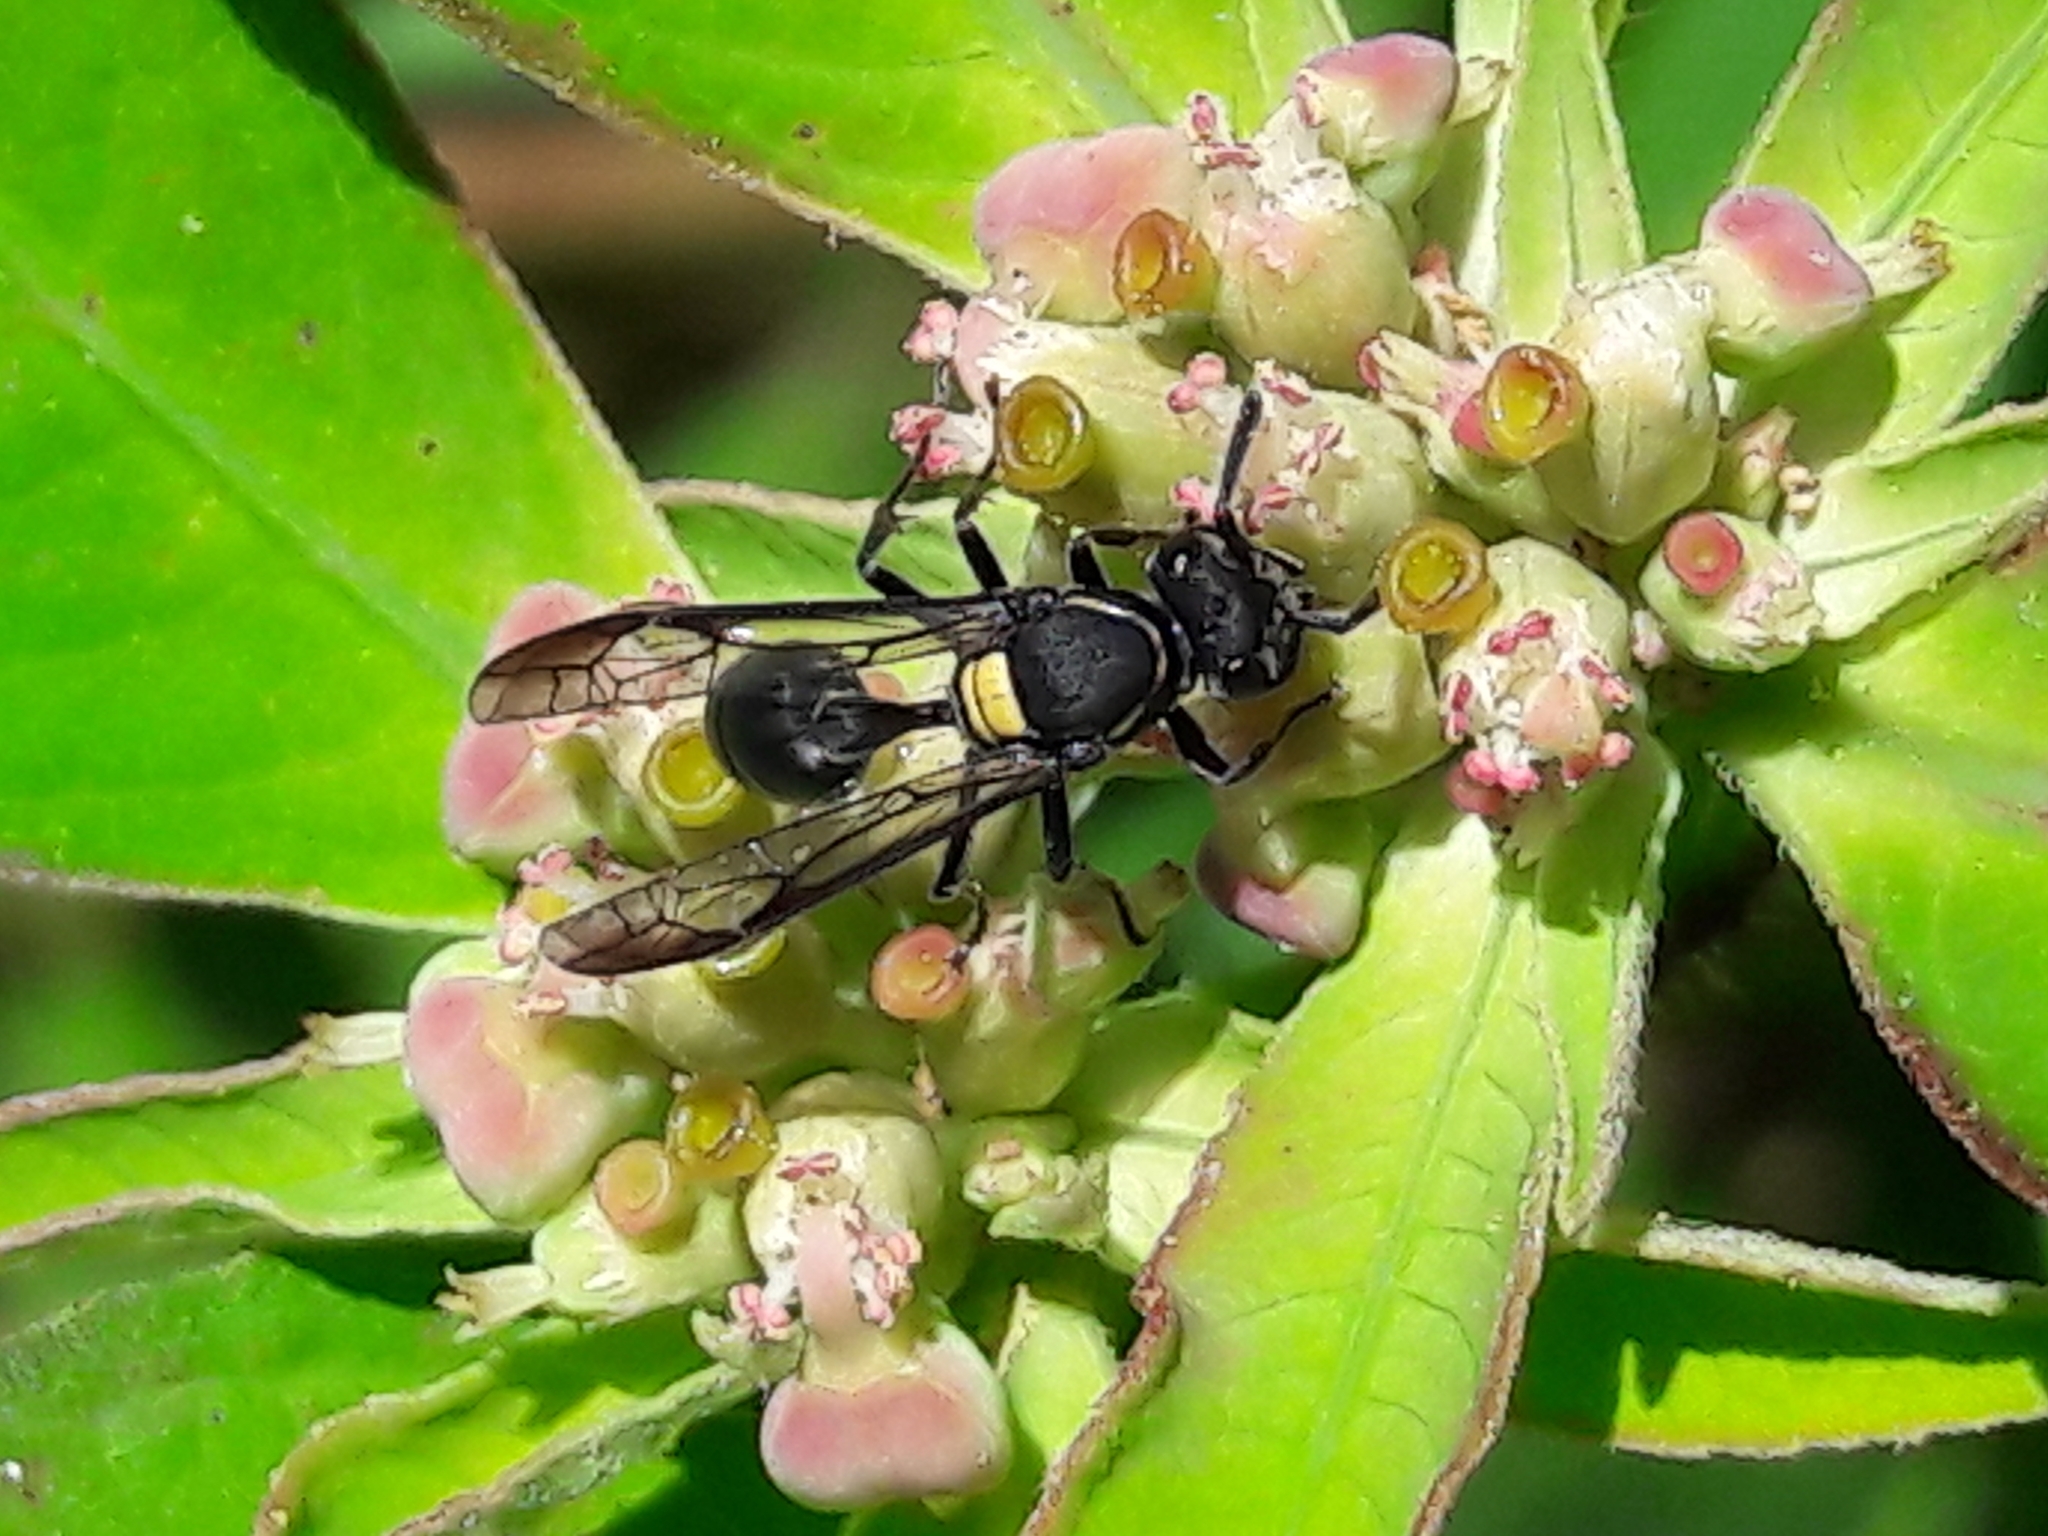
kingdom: Animalia
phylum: Arthropoda
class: Insecta
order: Hymenoptera
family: Eumenidae
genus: Polybia
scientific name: Polybia scutellaris
